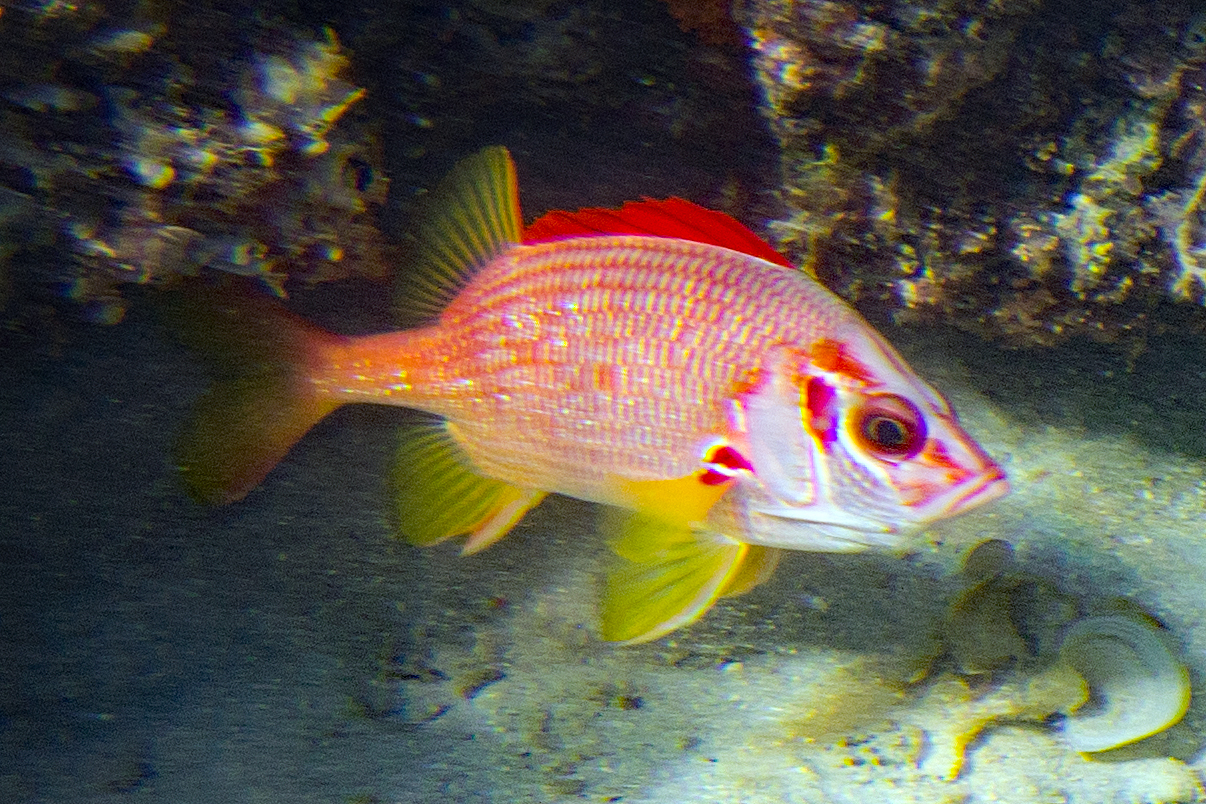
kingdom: Animalia
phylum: Chordata
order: Beryciformes
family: Holocentridae
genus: Sargocentron
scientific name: Sargocentron spiniferum
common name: Giant squirrelfish
